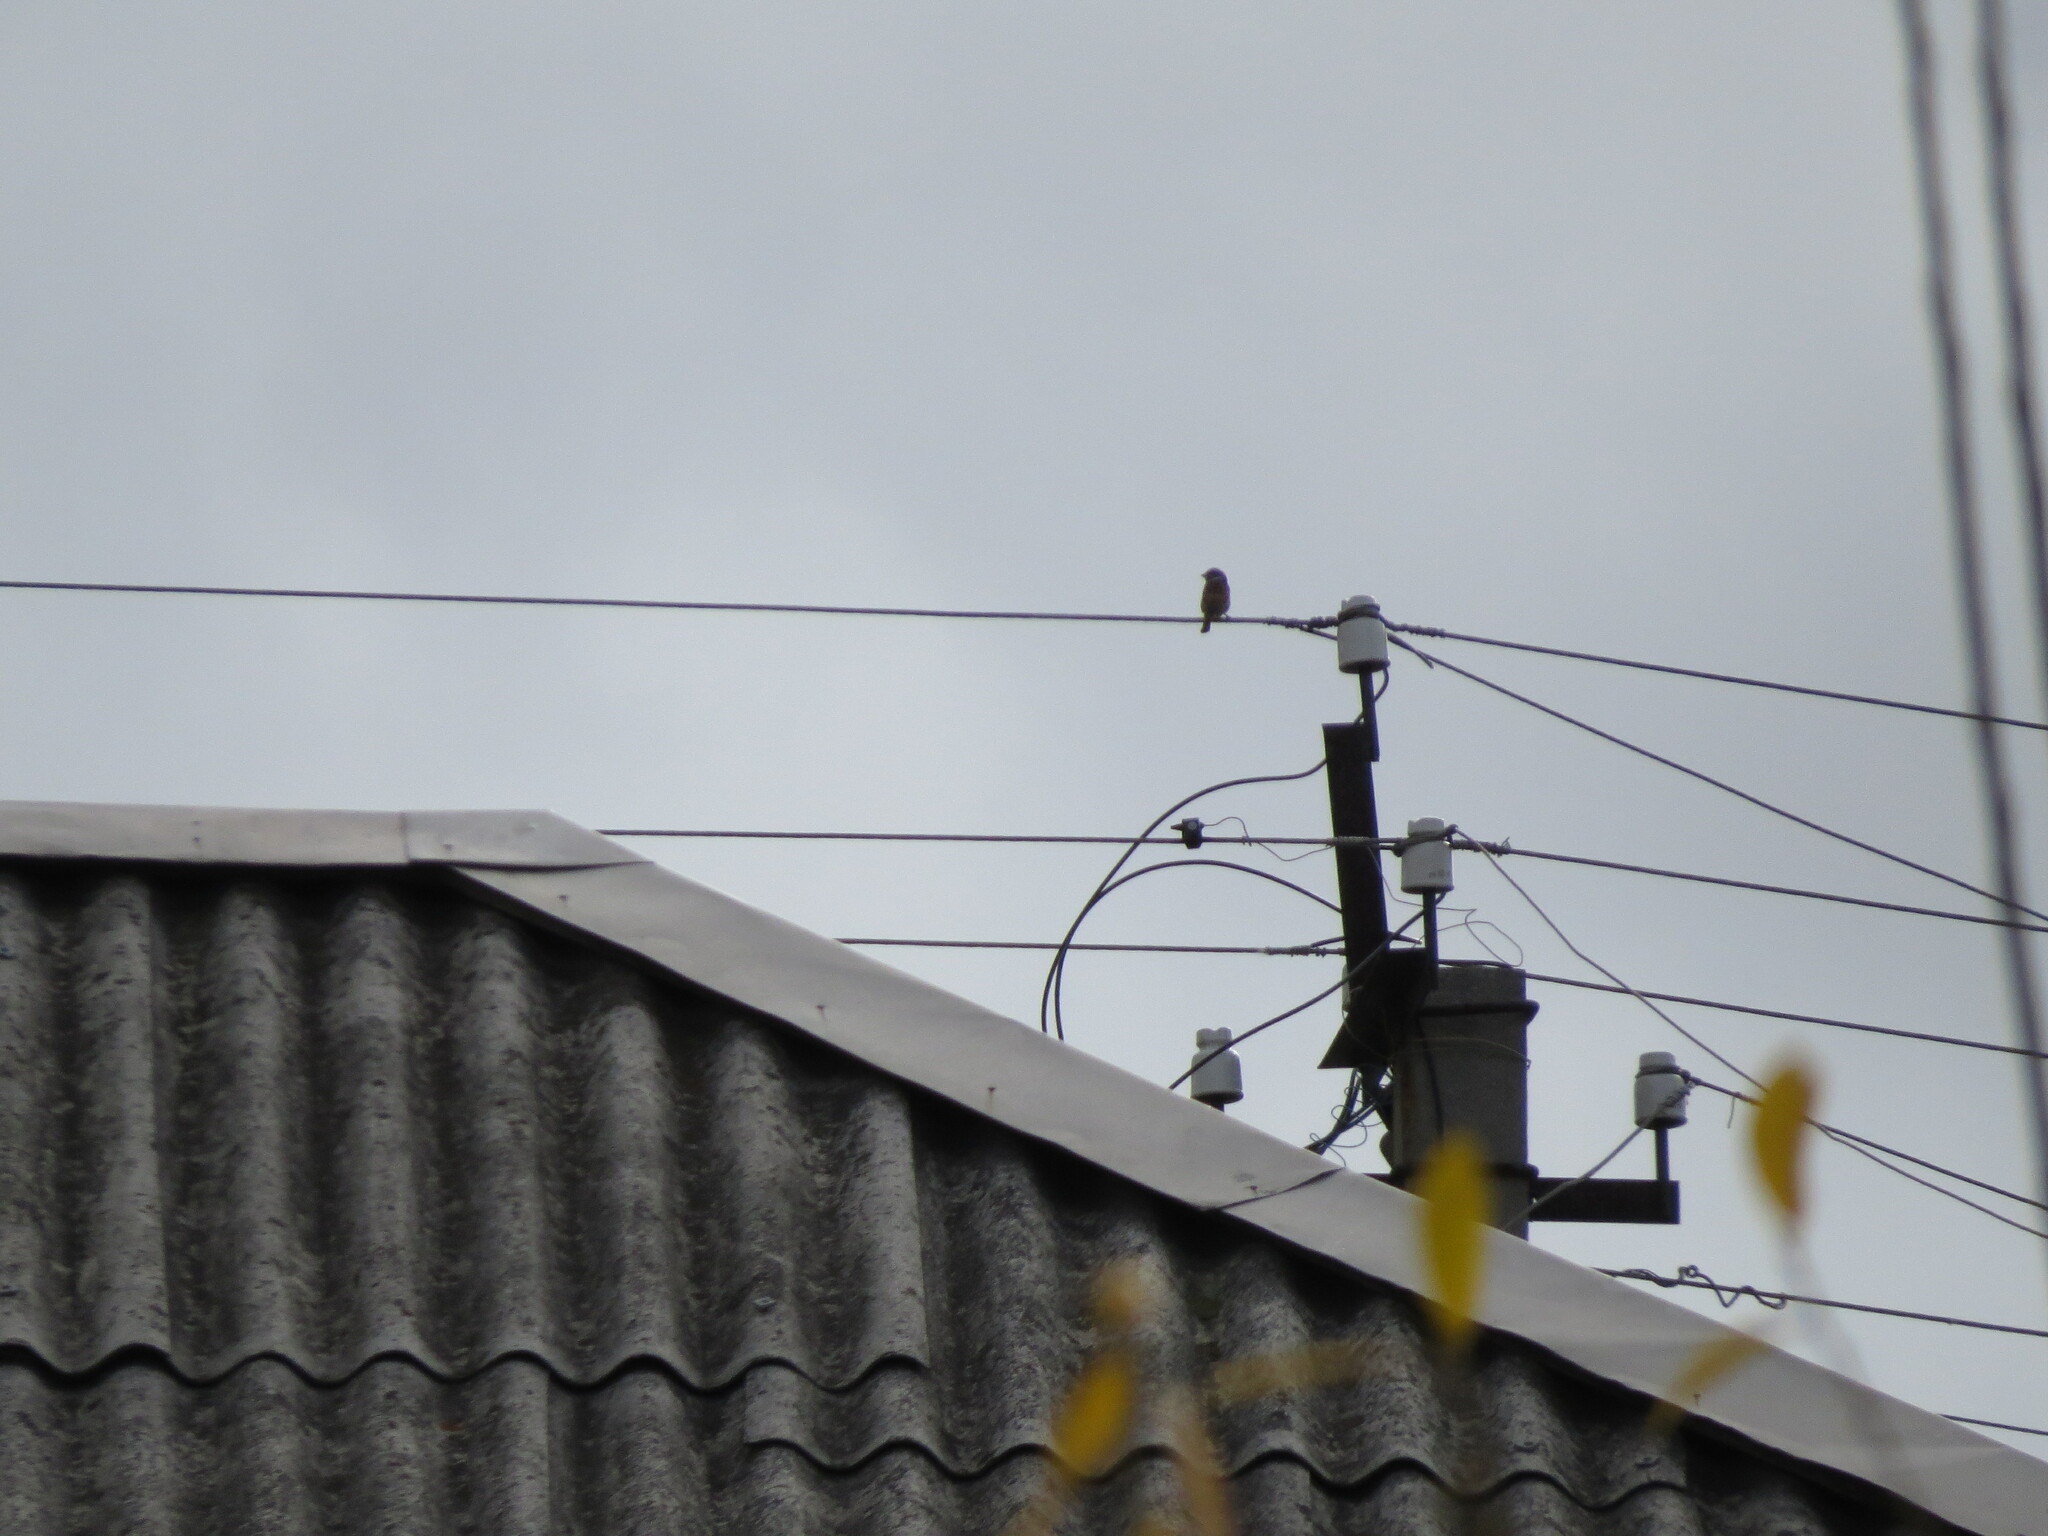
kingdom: Animalia
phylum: Chordata
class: Aves
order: Passeriformes
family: Passeridae
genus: Passer
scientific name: Passer montanus
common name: Eurasian tree sparrow
